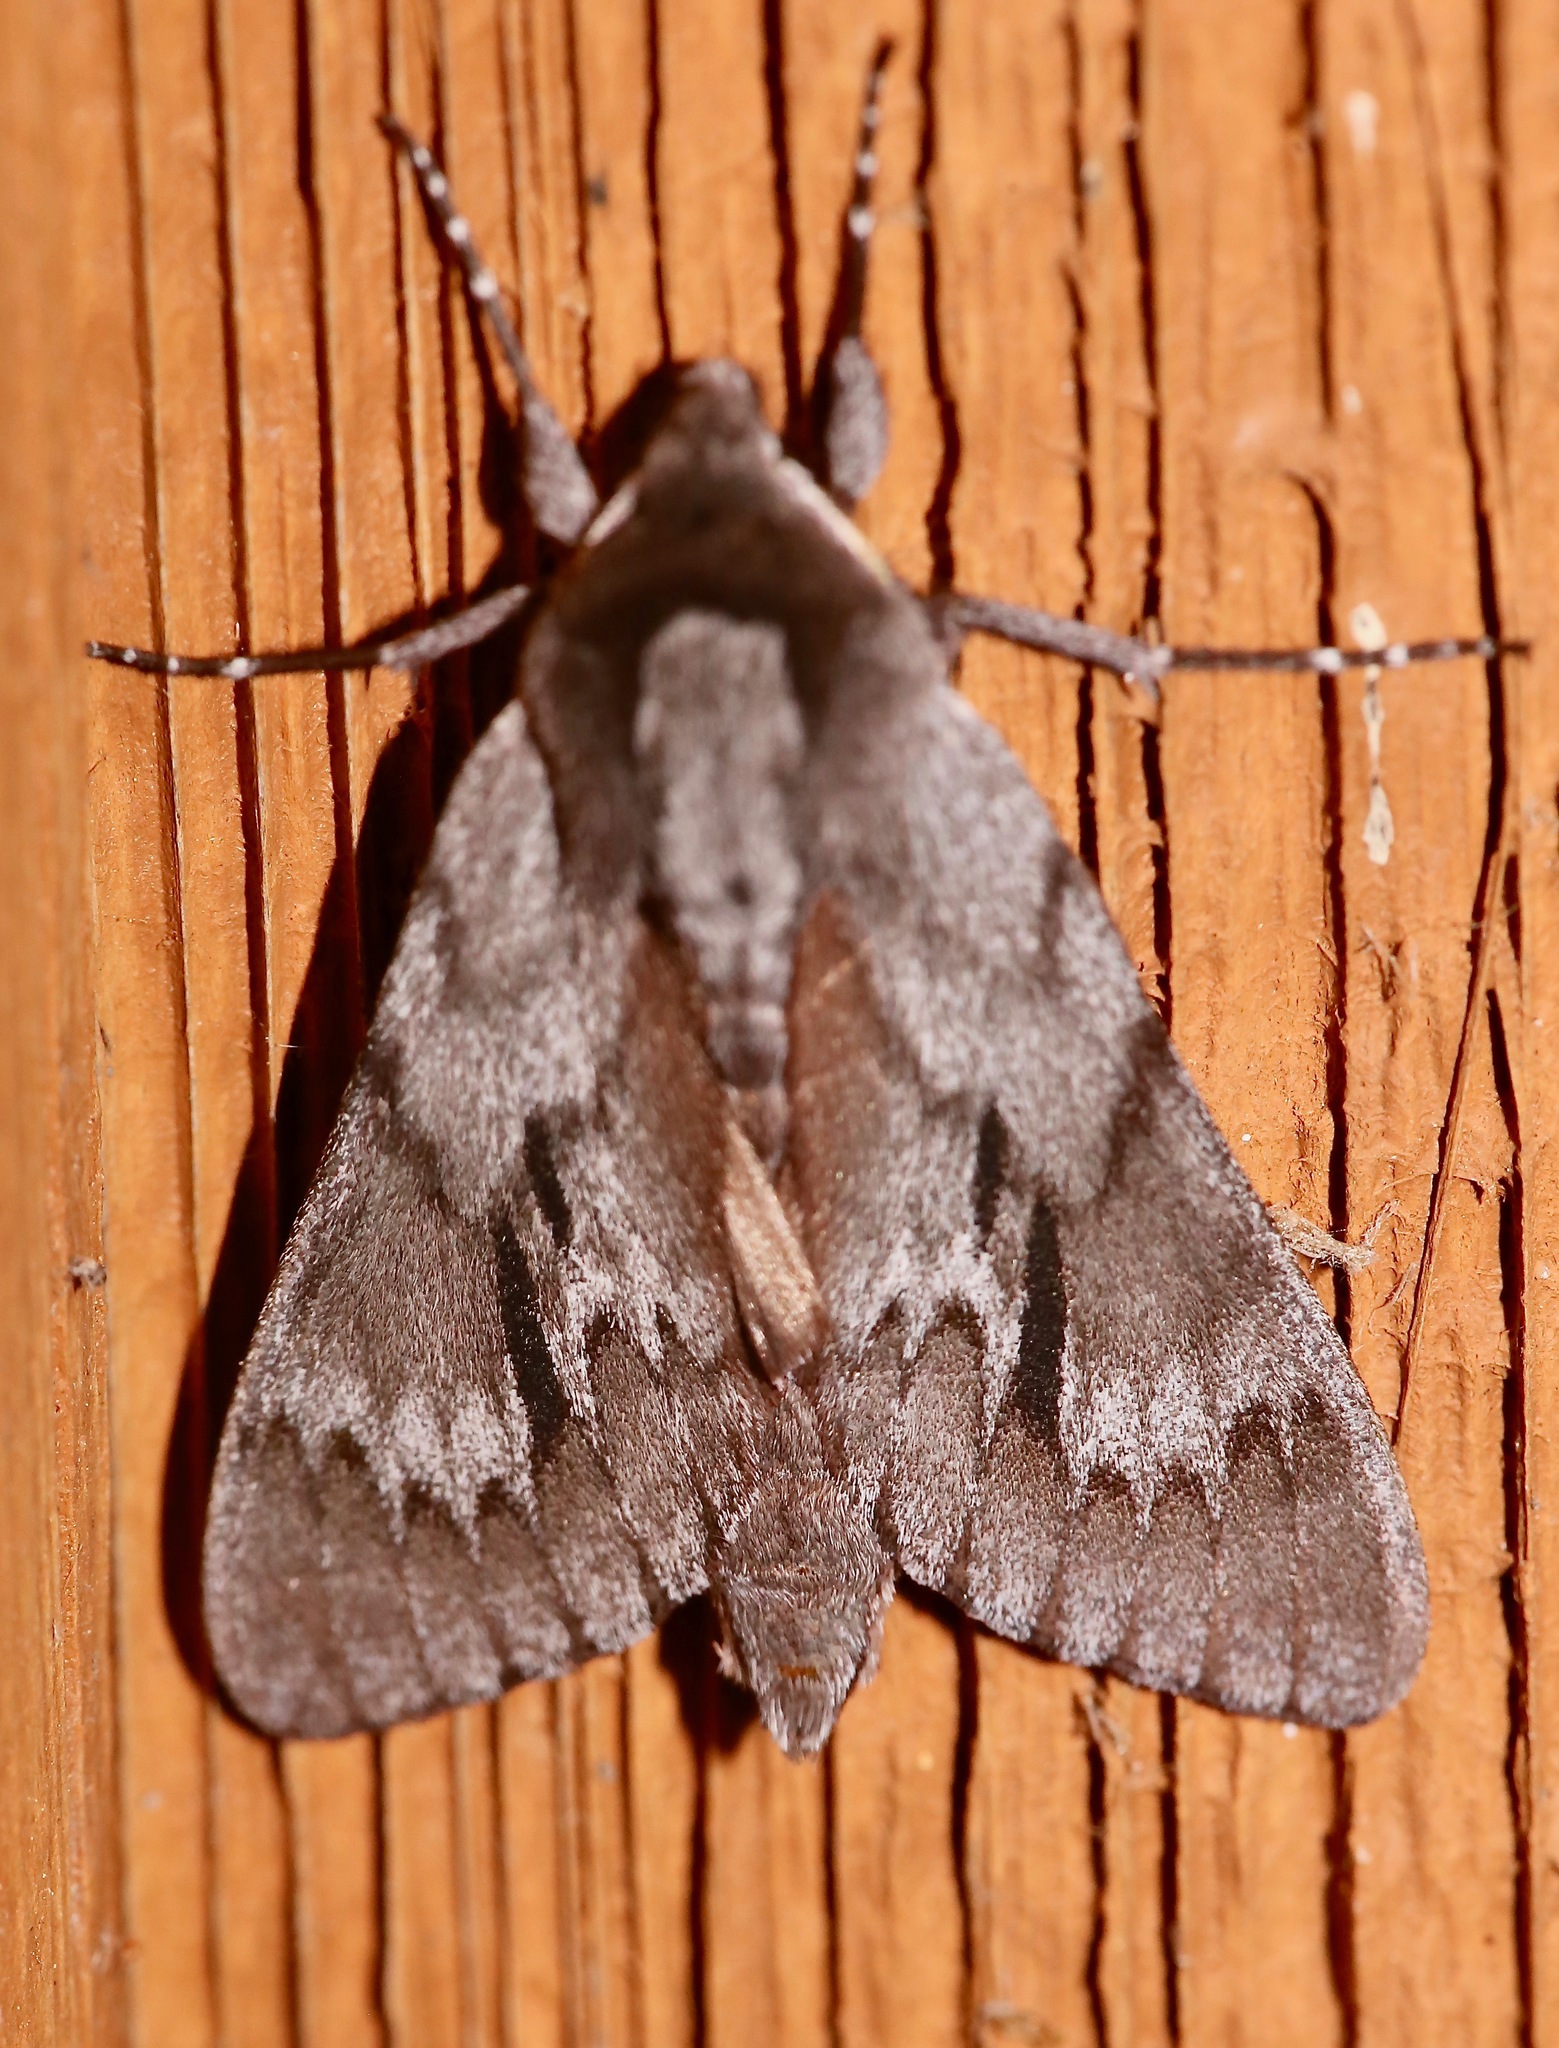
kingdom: Animalia
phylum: Arthropoda
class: Insecta
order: Lepidoptera
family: Sphingidae
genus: Lapara
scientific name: Lapara coniferarum
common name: Southern pine sphinx
